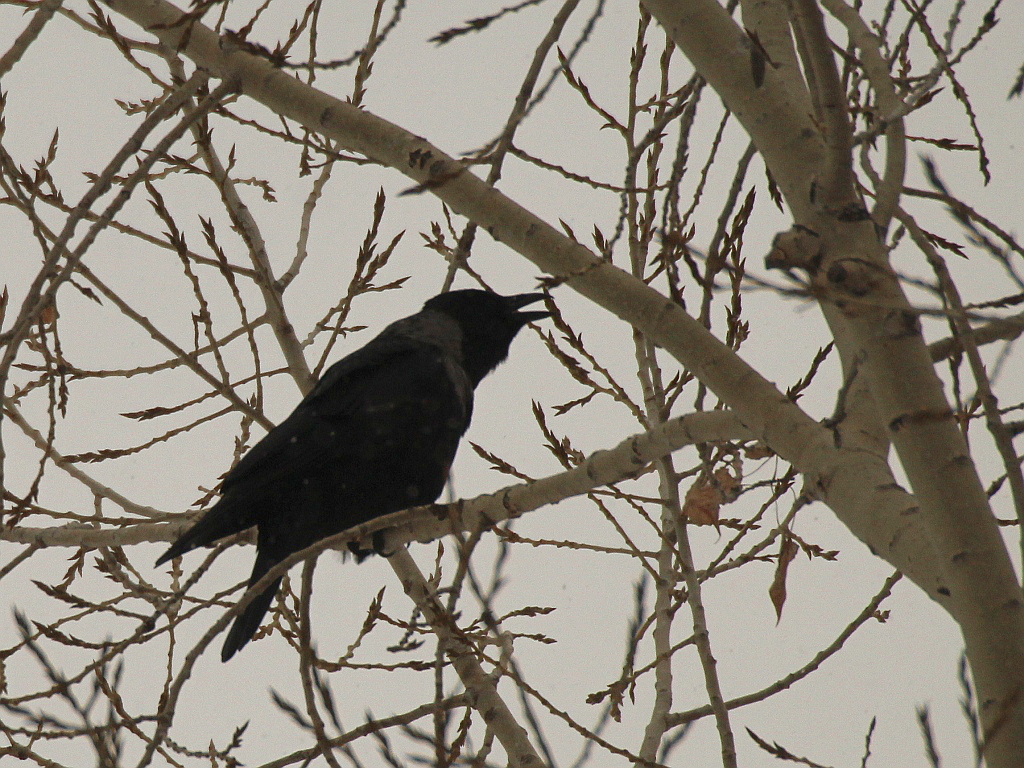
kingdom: Animalia
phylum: Chordata
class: Aves
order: Passeriformes
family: Corvidae
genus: Corvus
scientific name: Corvus
